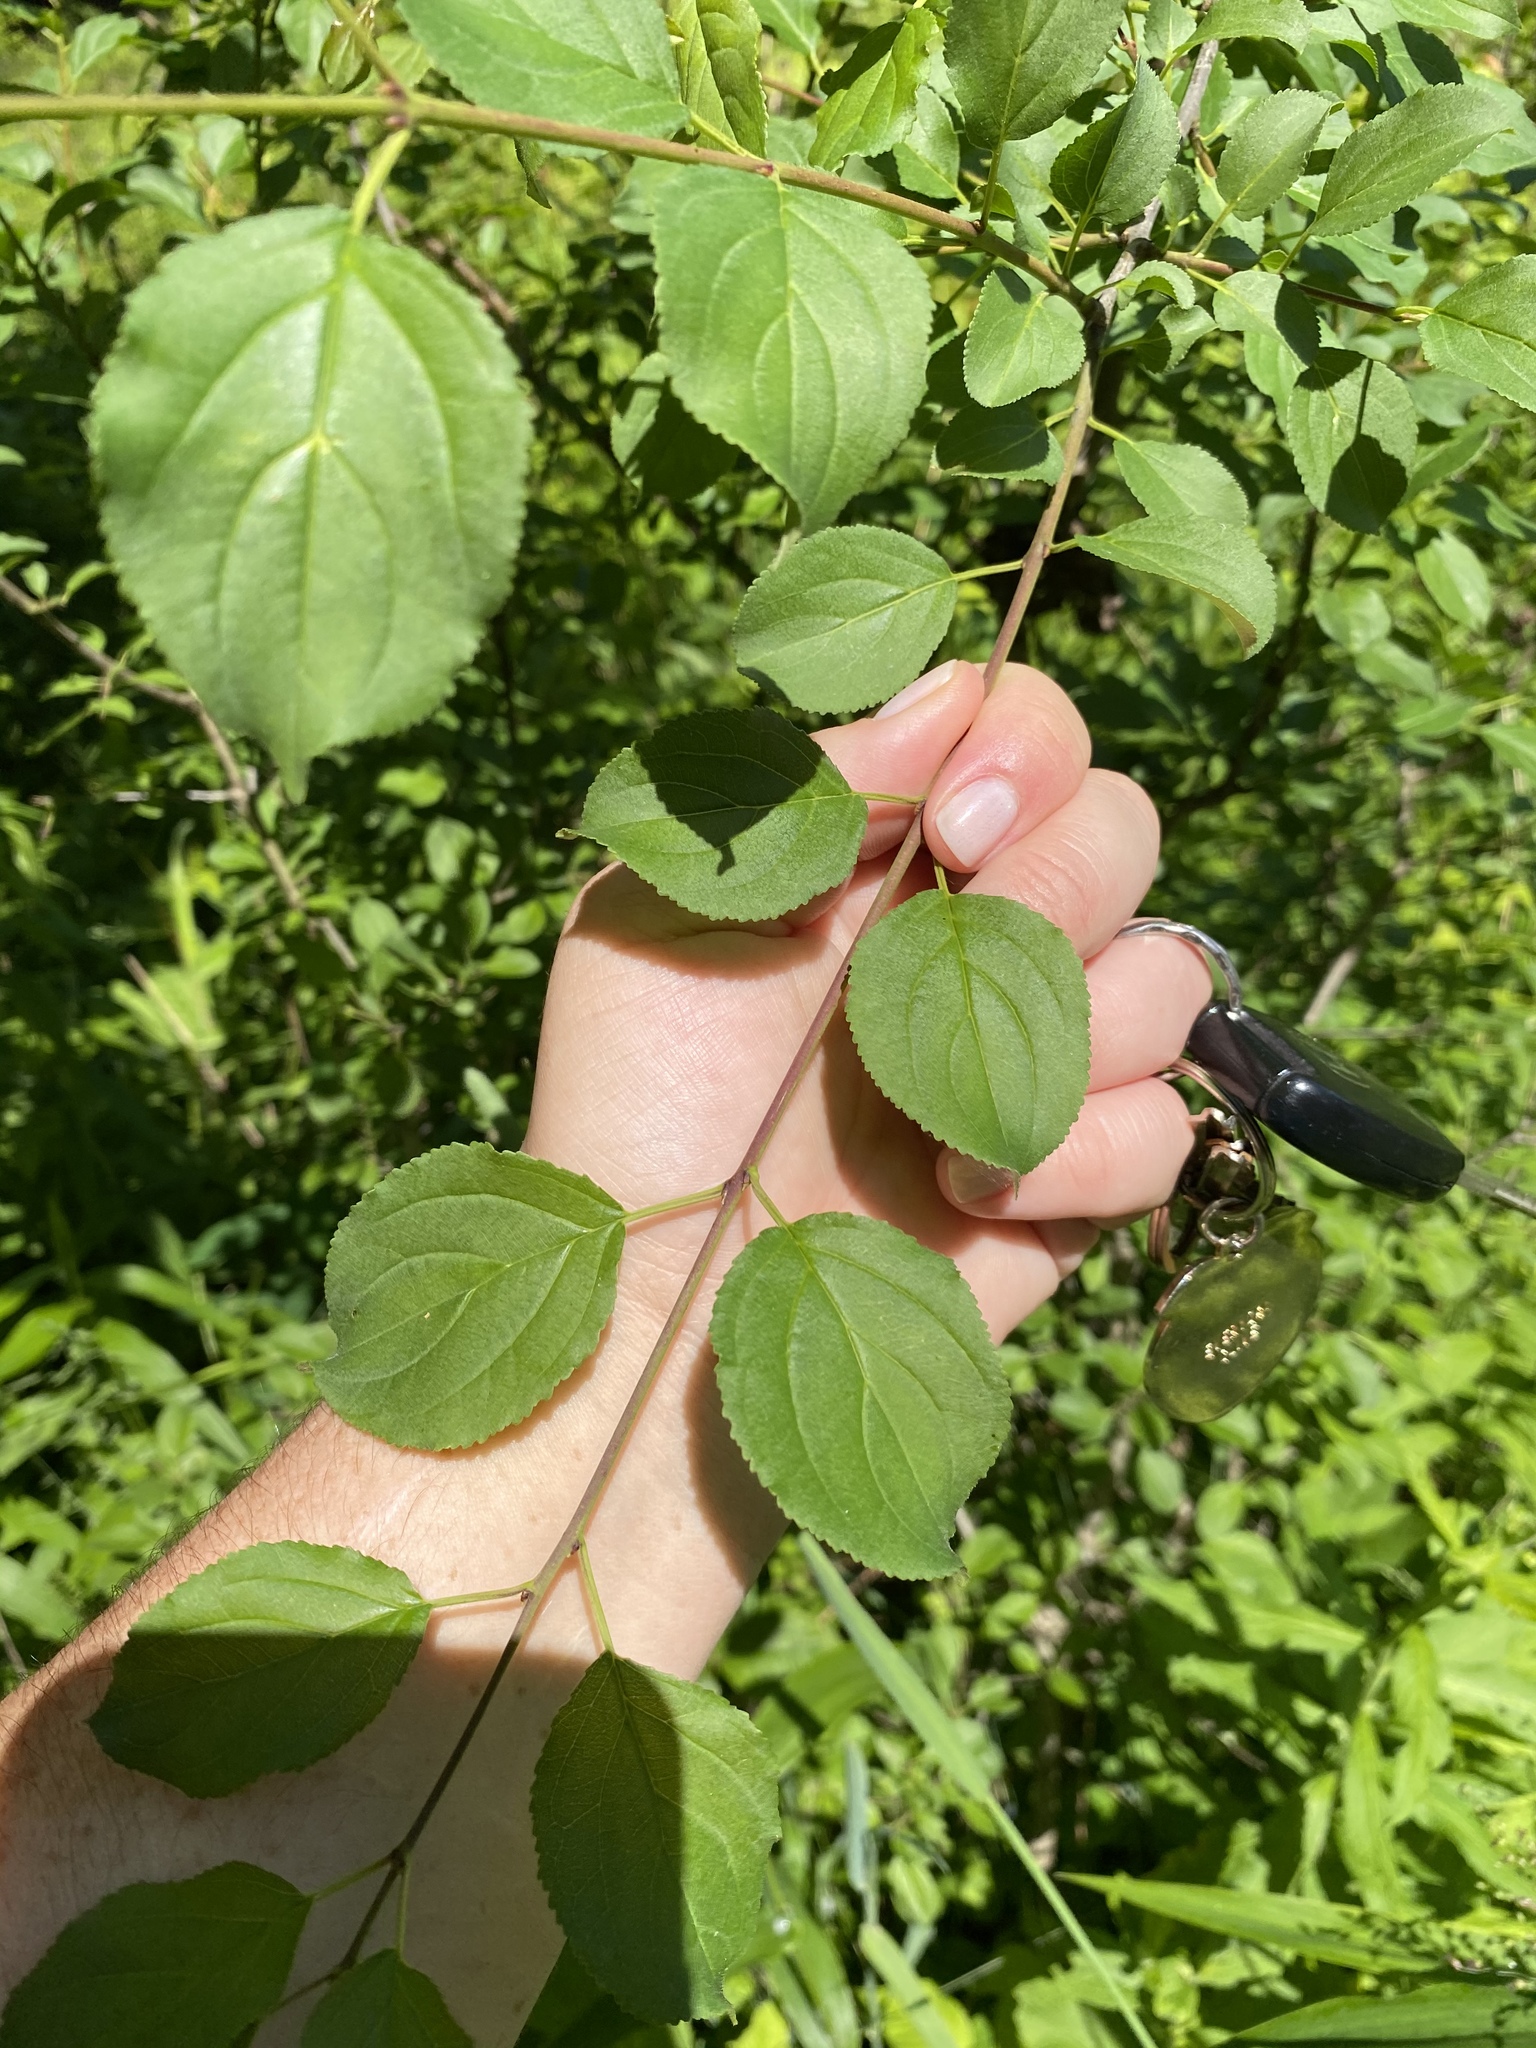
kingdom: Plantae
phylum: Tracheophyta
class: Magnoliopsida
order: Rosales
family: Rhamnaceae
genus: Rhamnus
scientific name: Rhamnus cathartica
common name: Common buckthorn
